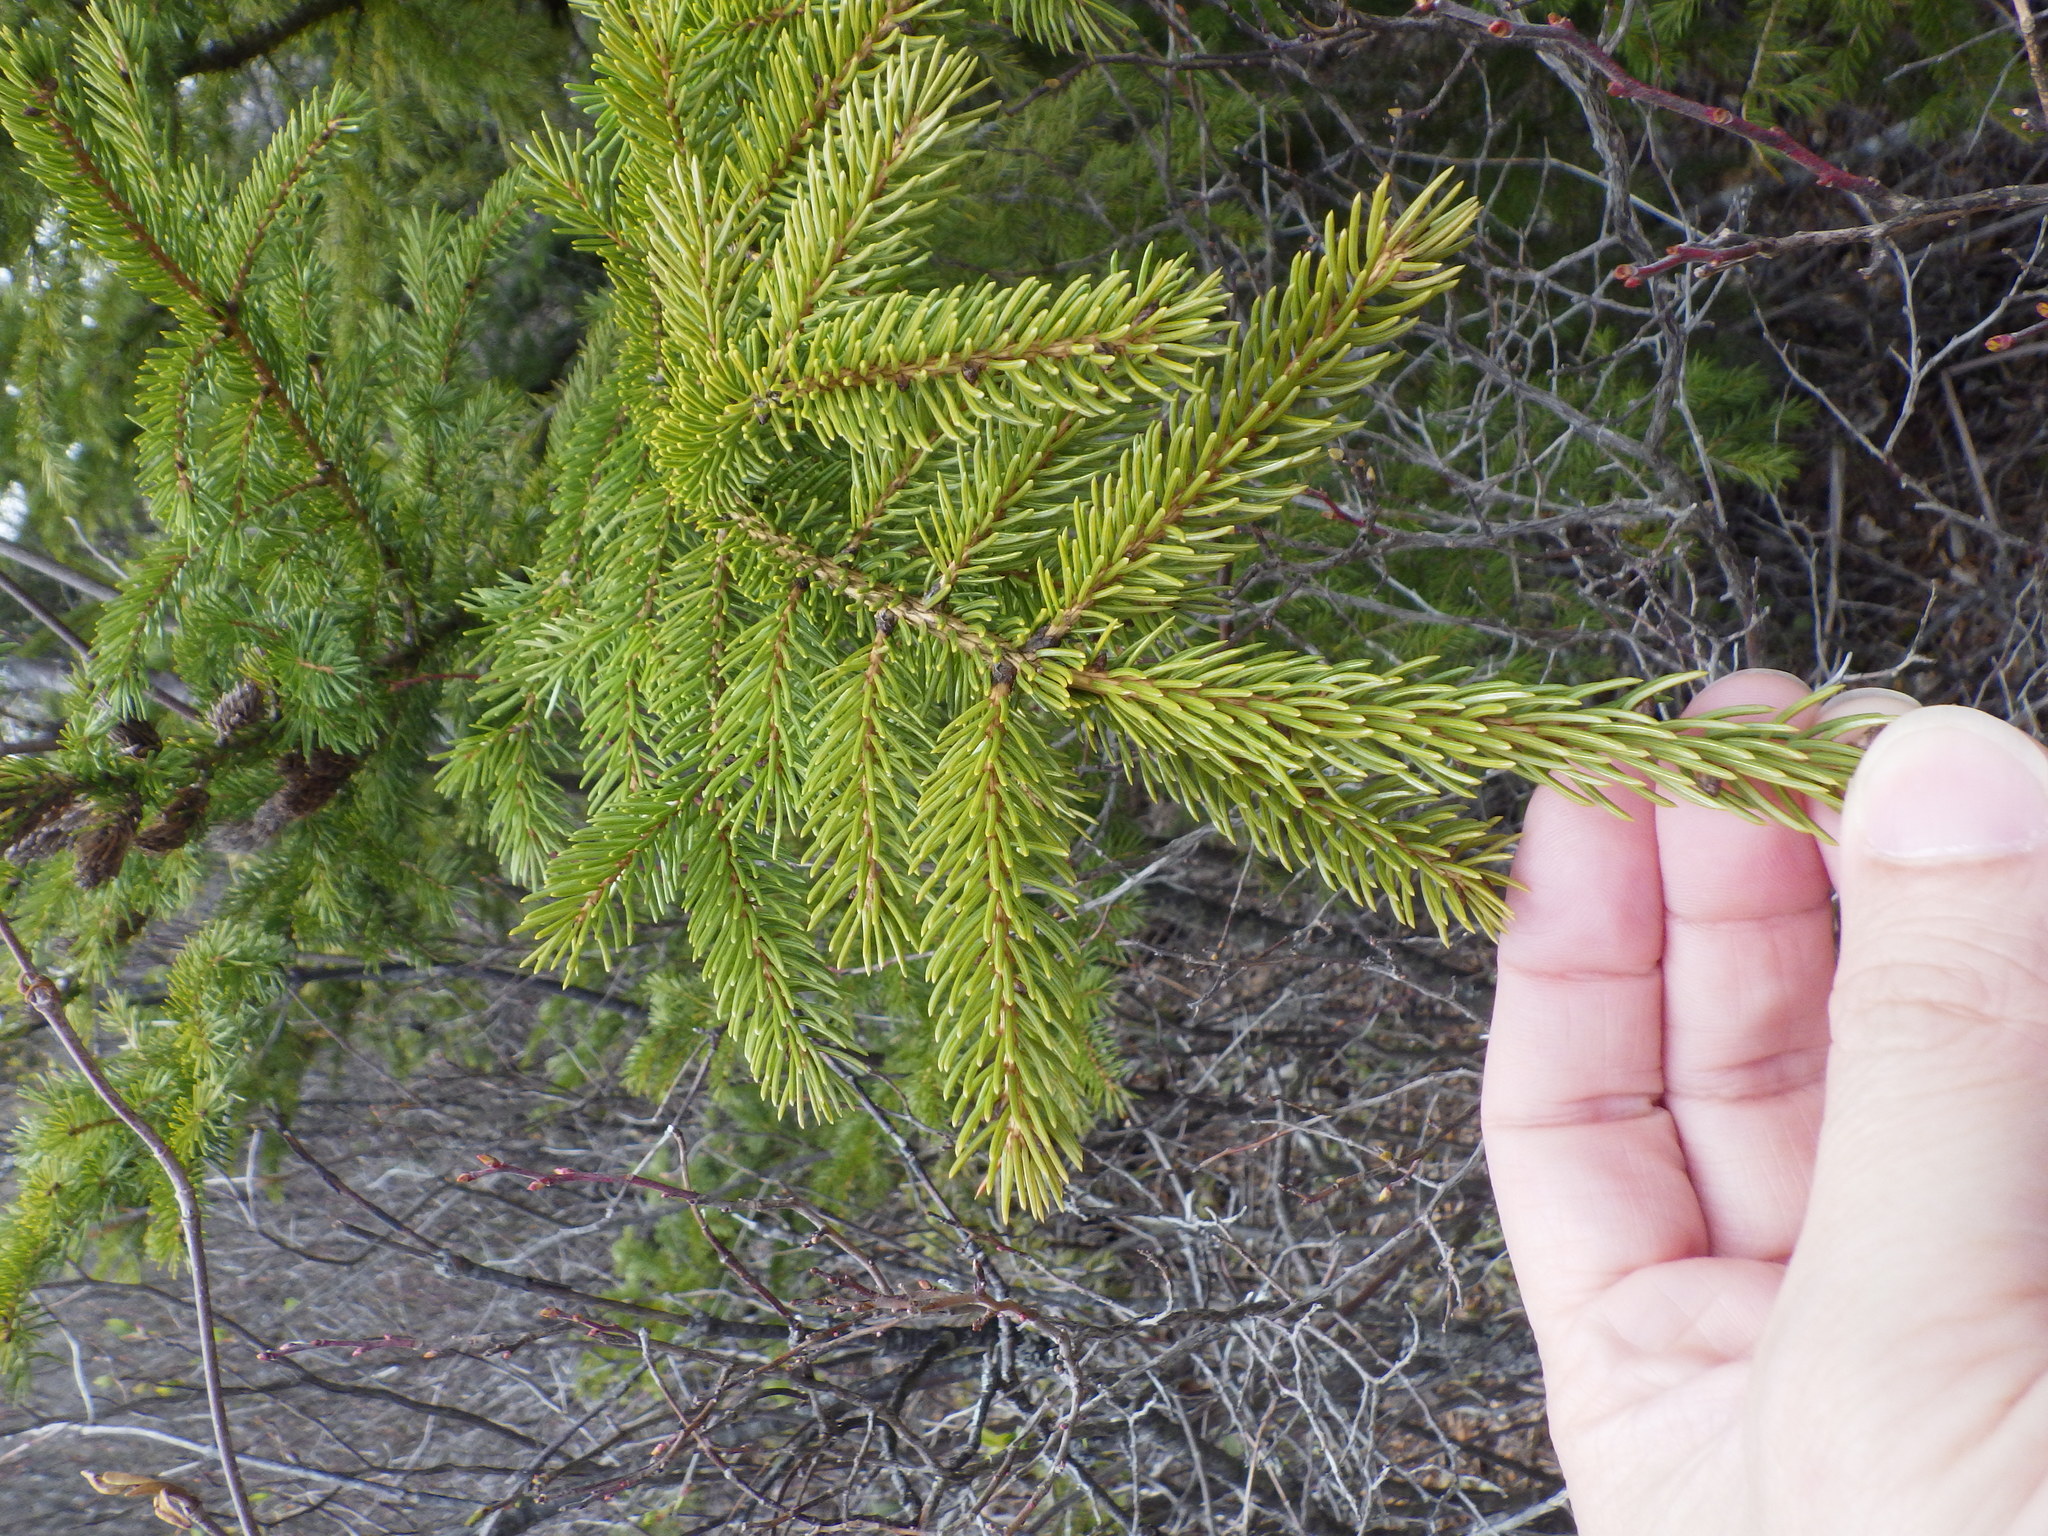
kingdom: Plantae
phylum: Tracheophyta
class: Pinopsida
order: Pinales
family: Pinaceae
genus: Picea
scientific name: Picea rubens
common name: Red spruce
